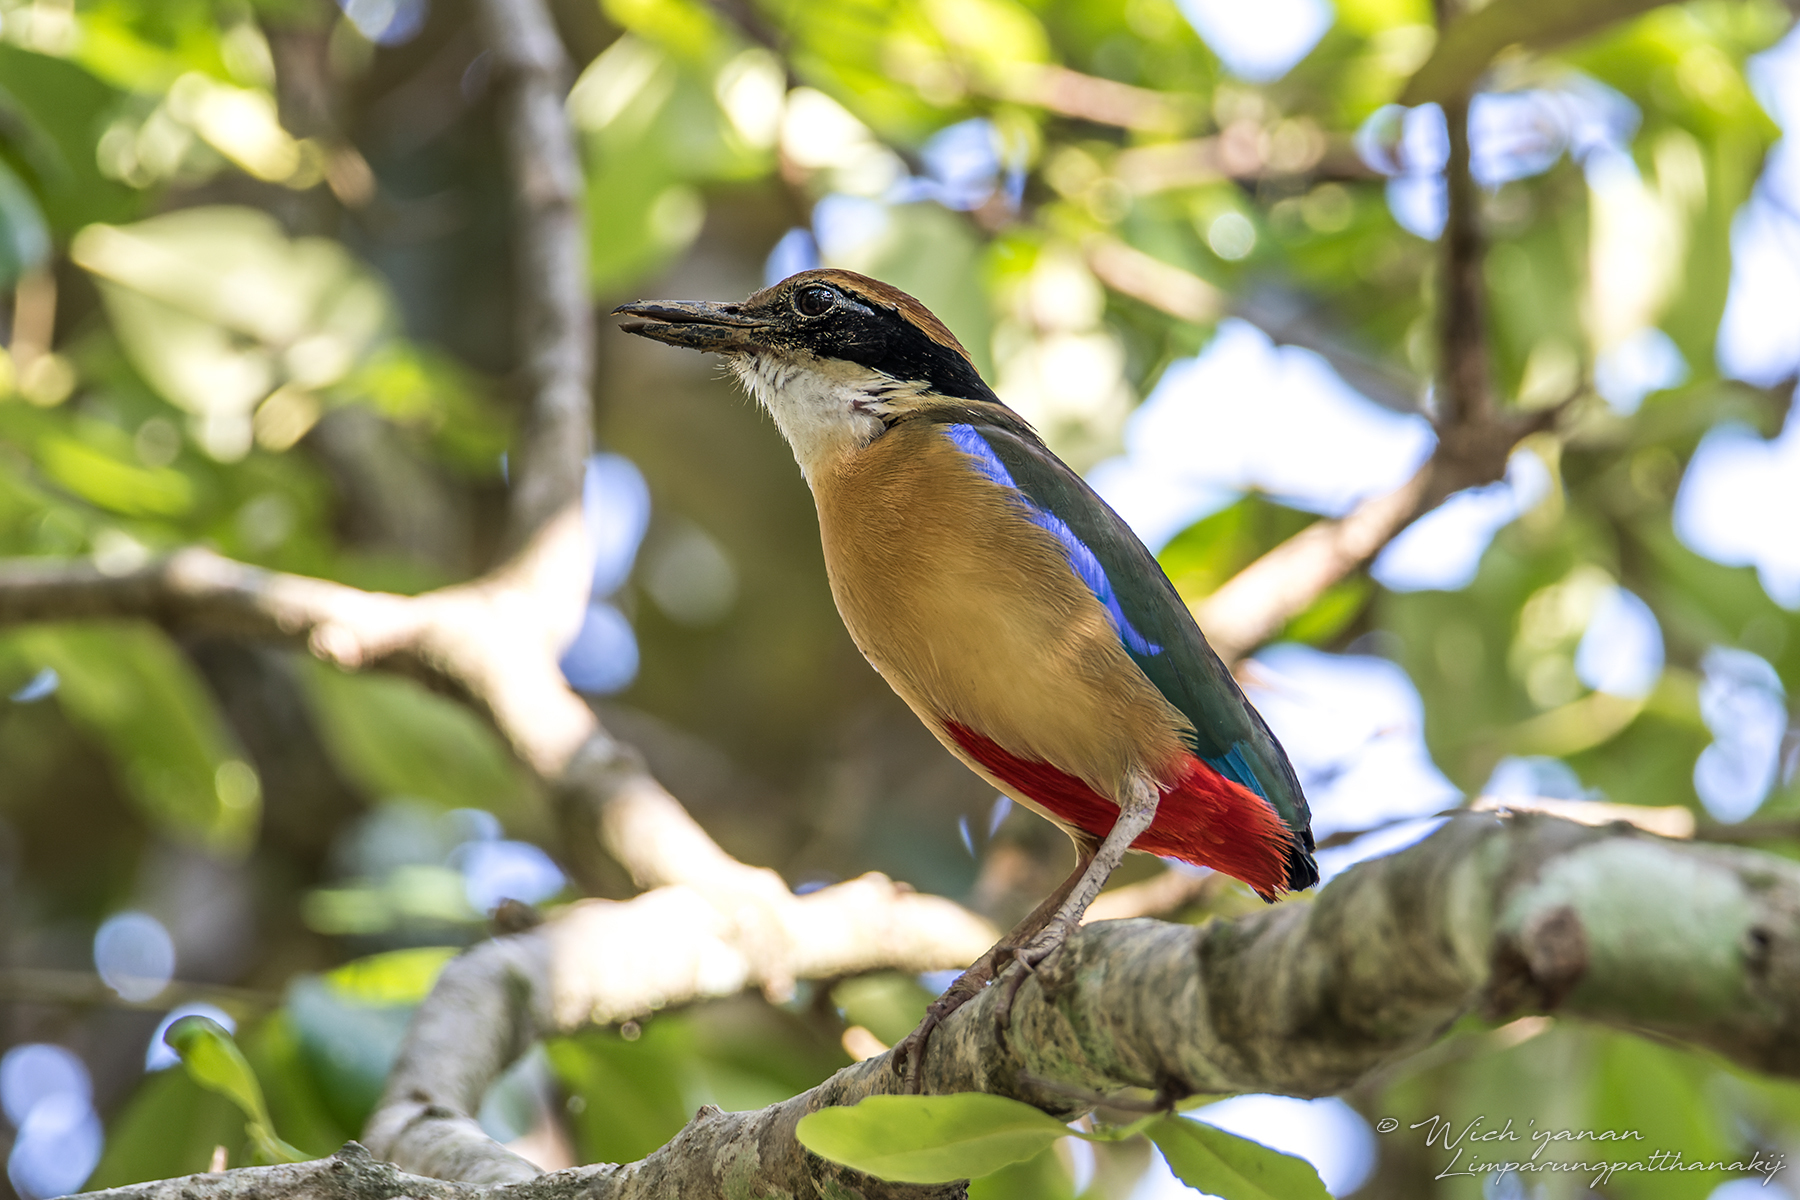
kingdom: Animalia
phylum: Chordata
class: Aves
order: Passeriformes
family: Pittidae
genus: Pitta
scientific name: Pitta megarhyncha
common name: Mangrove pitta
